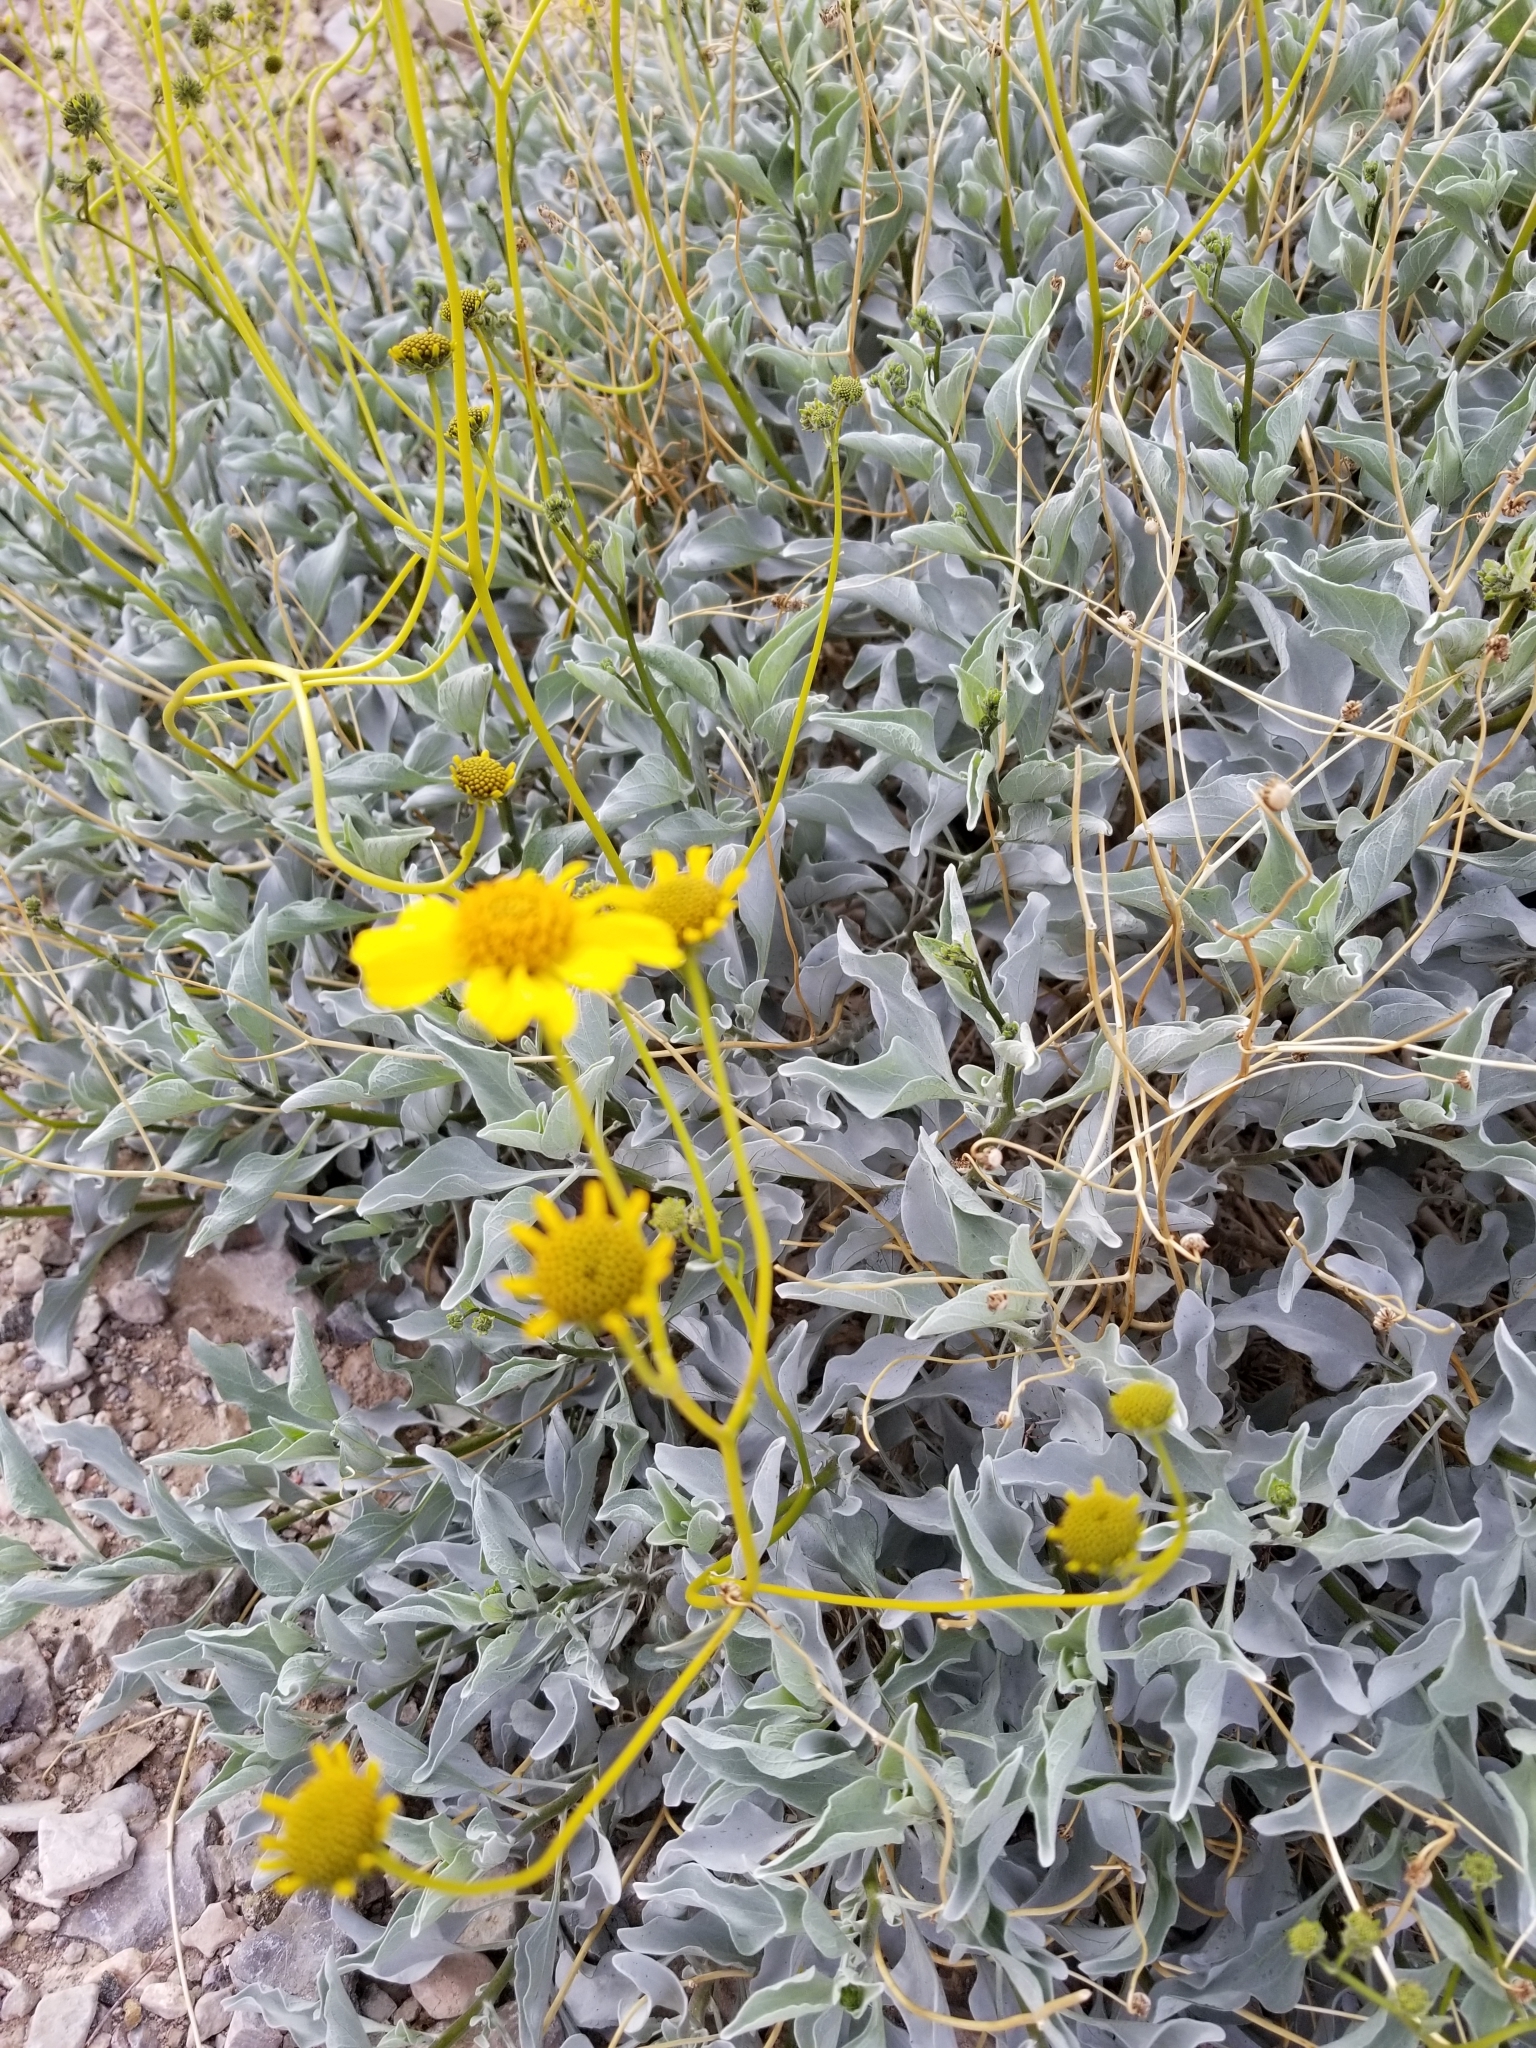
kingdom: Plantae
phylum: Tracheophyta
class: Magnoliopsida
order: Asterales
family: Asteraceae
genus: Encelia
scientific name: Encelia farinosa
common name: Brittlebush
